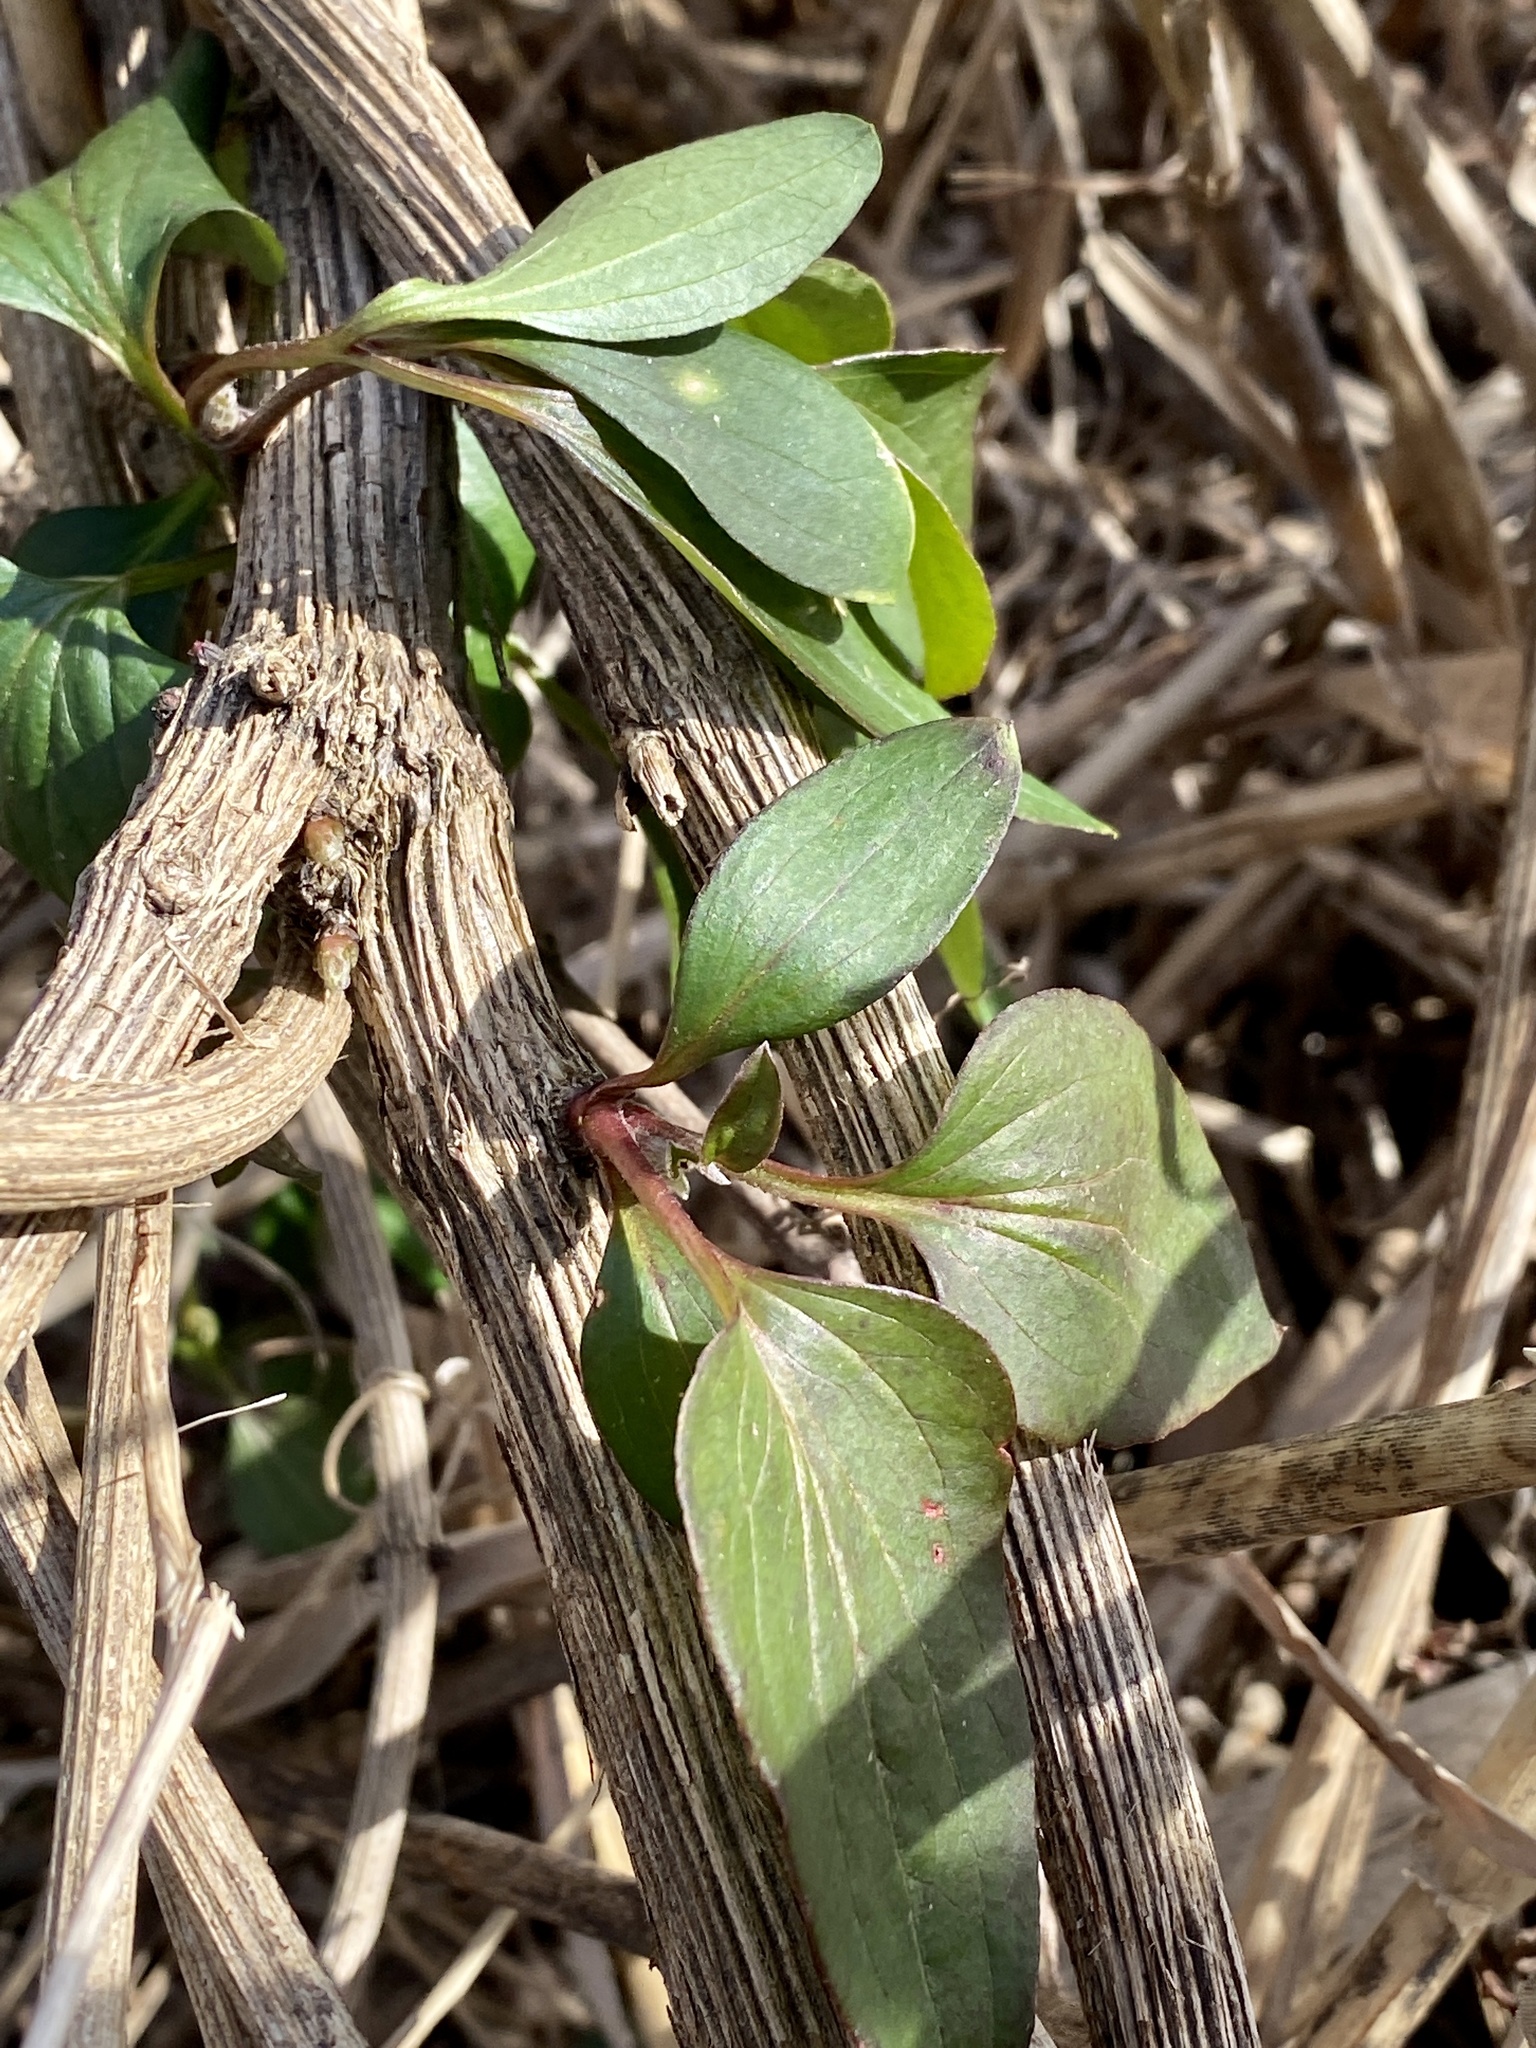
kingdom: Plantae
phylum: Tracheophyta
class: Magnoliopsida
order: Ranunculales
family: Ranunculaceae
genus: Clematis
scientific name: Clematis terniflora
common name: Sweet autumn clematis
